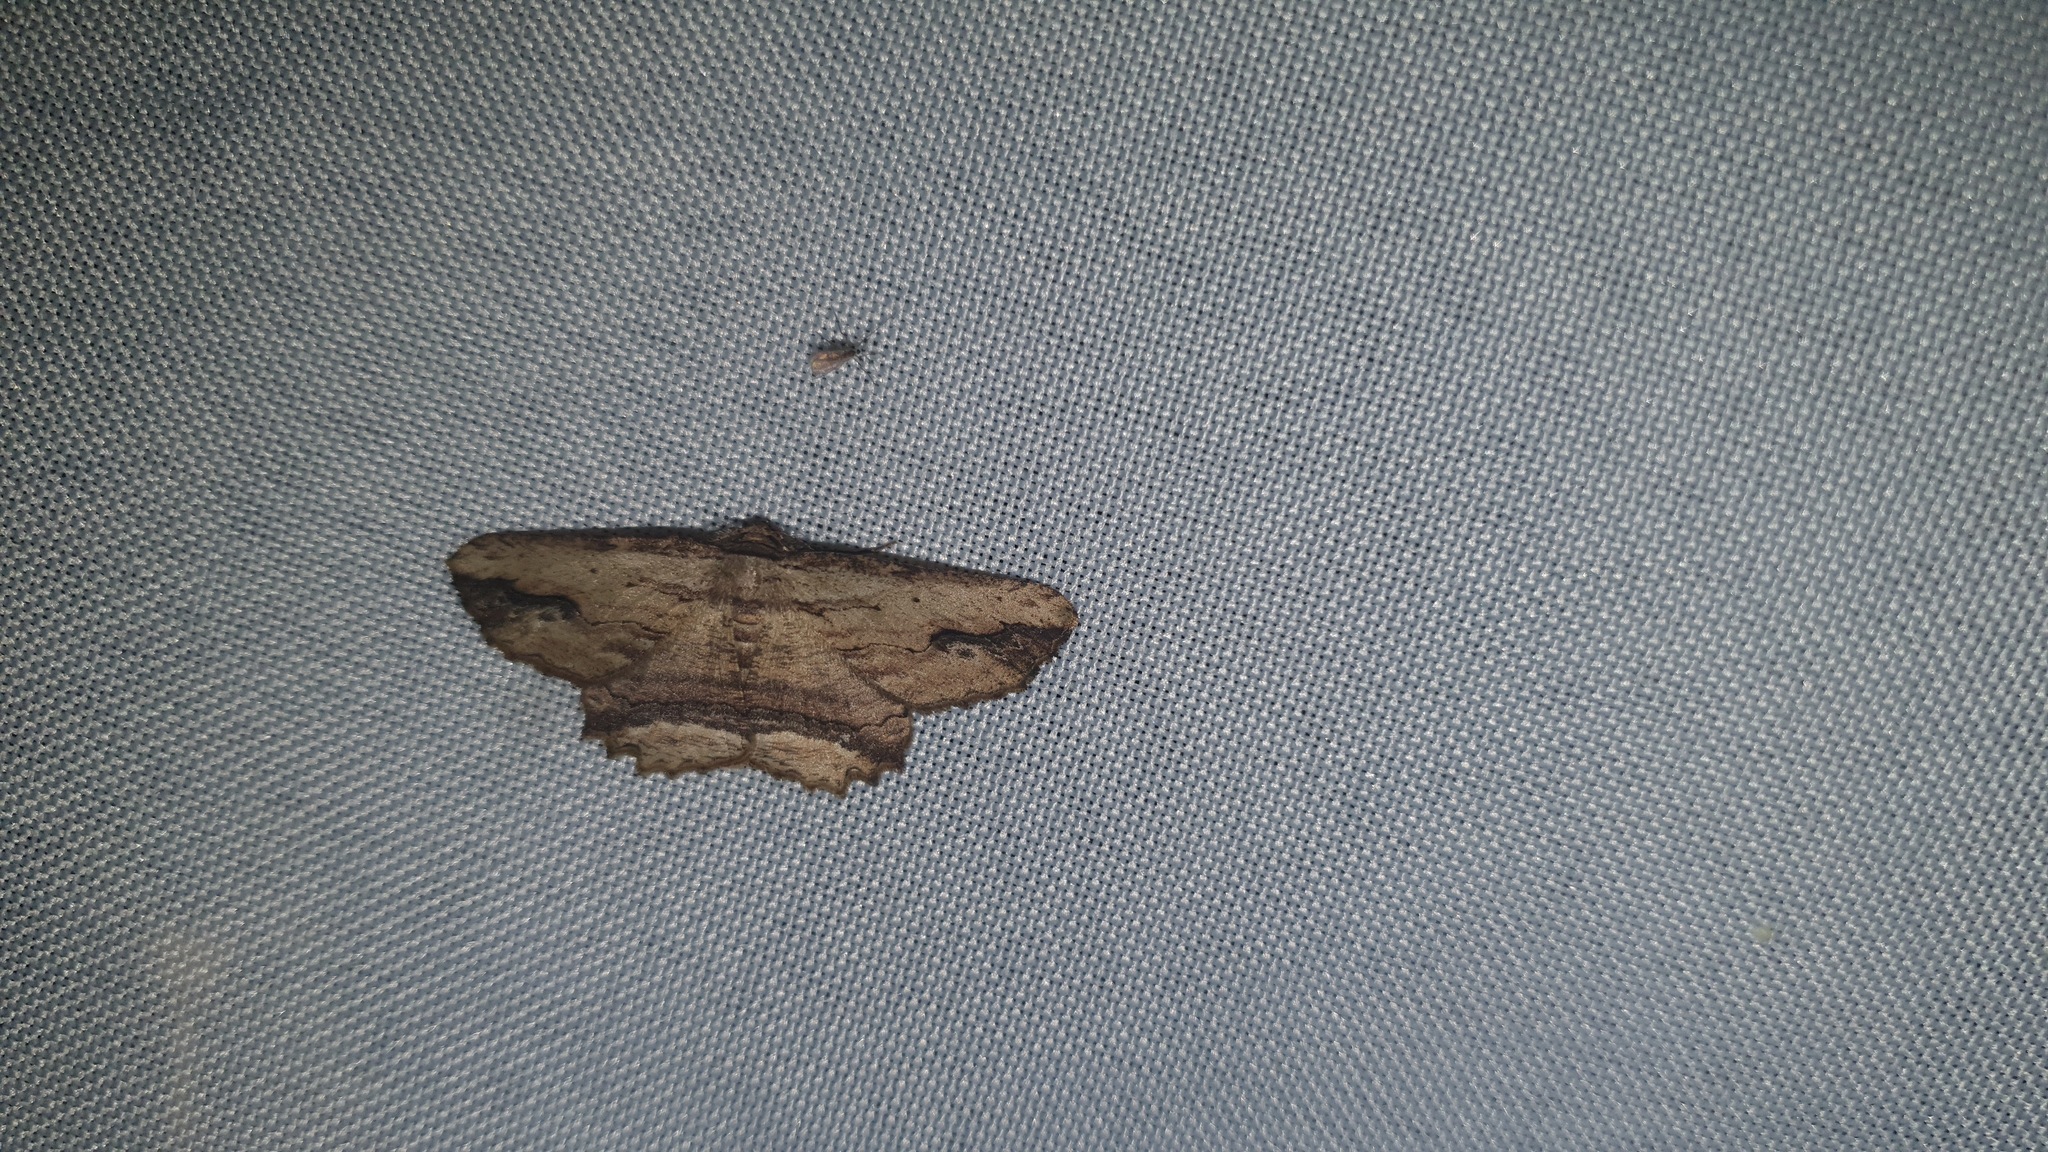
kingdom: Animalia
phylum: Arthropoda
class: Insecta
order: Lepidoptera
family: Geometridae
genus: Menophra
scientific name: Menophra abruptaria
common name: Waved umber
